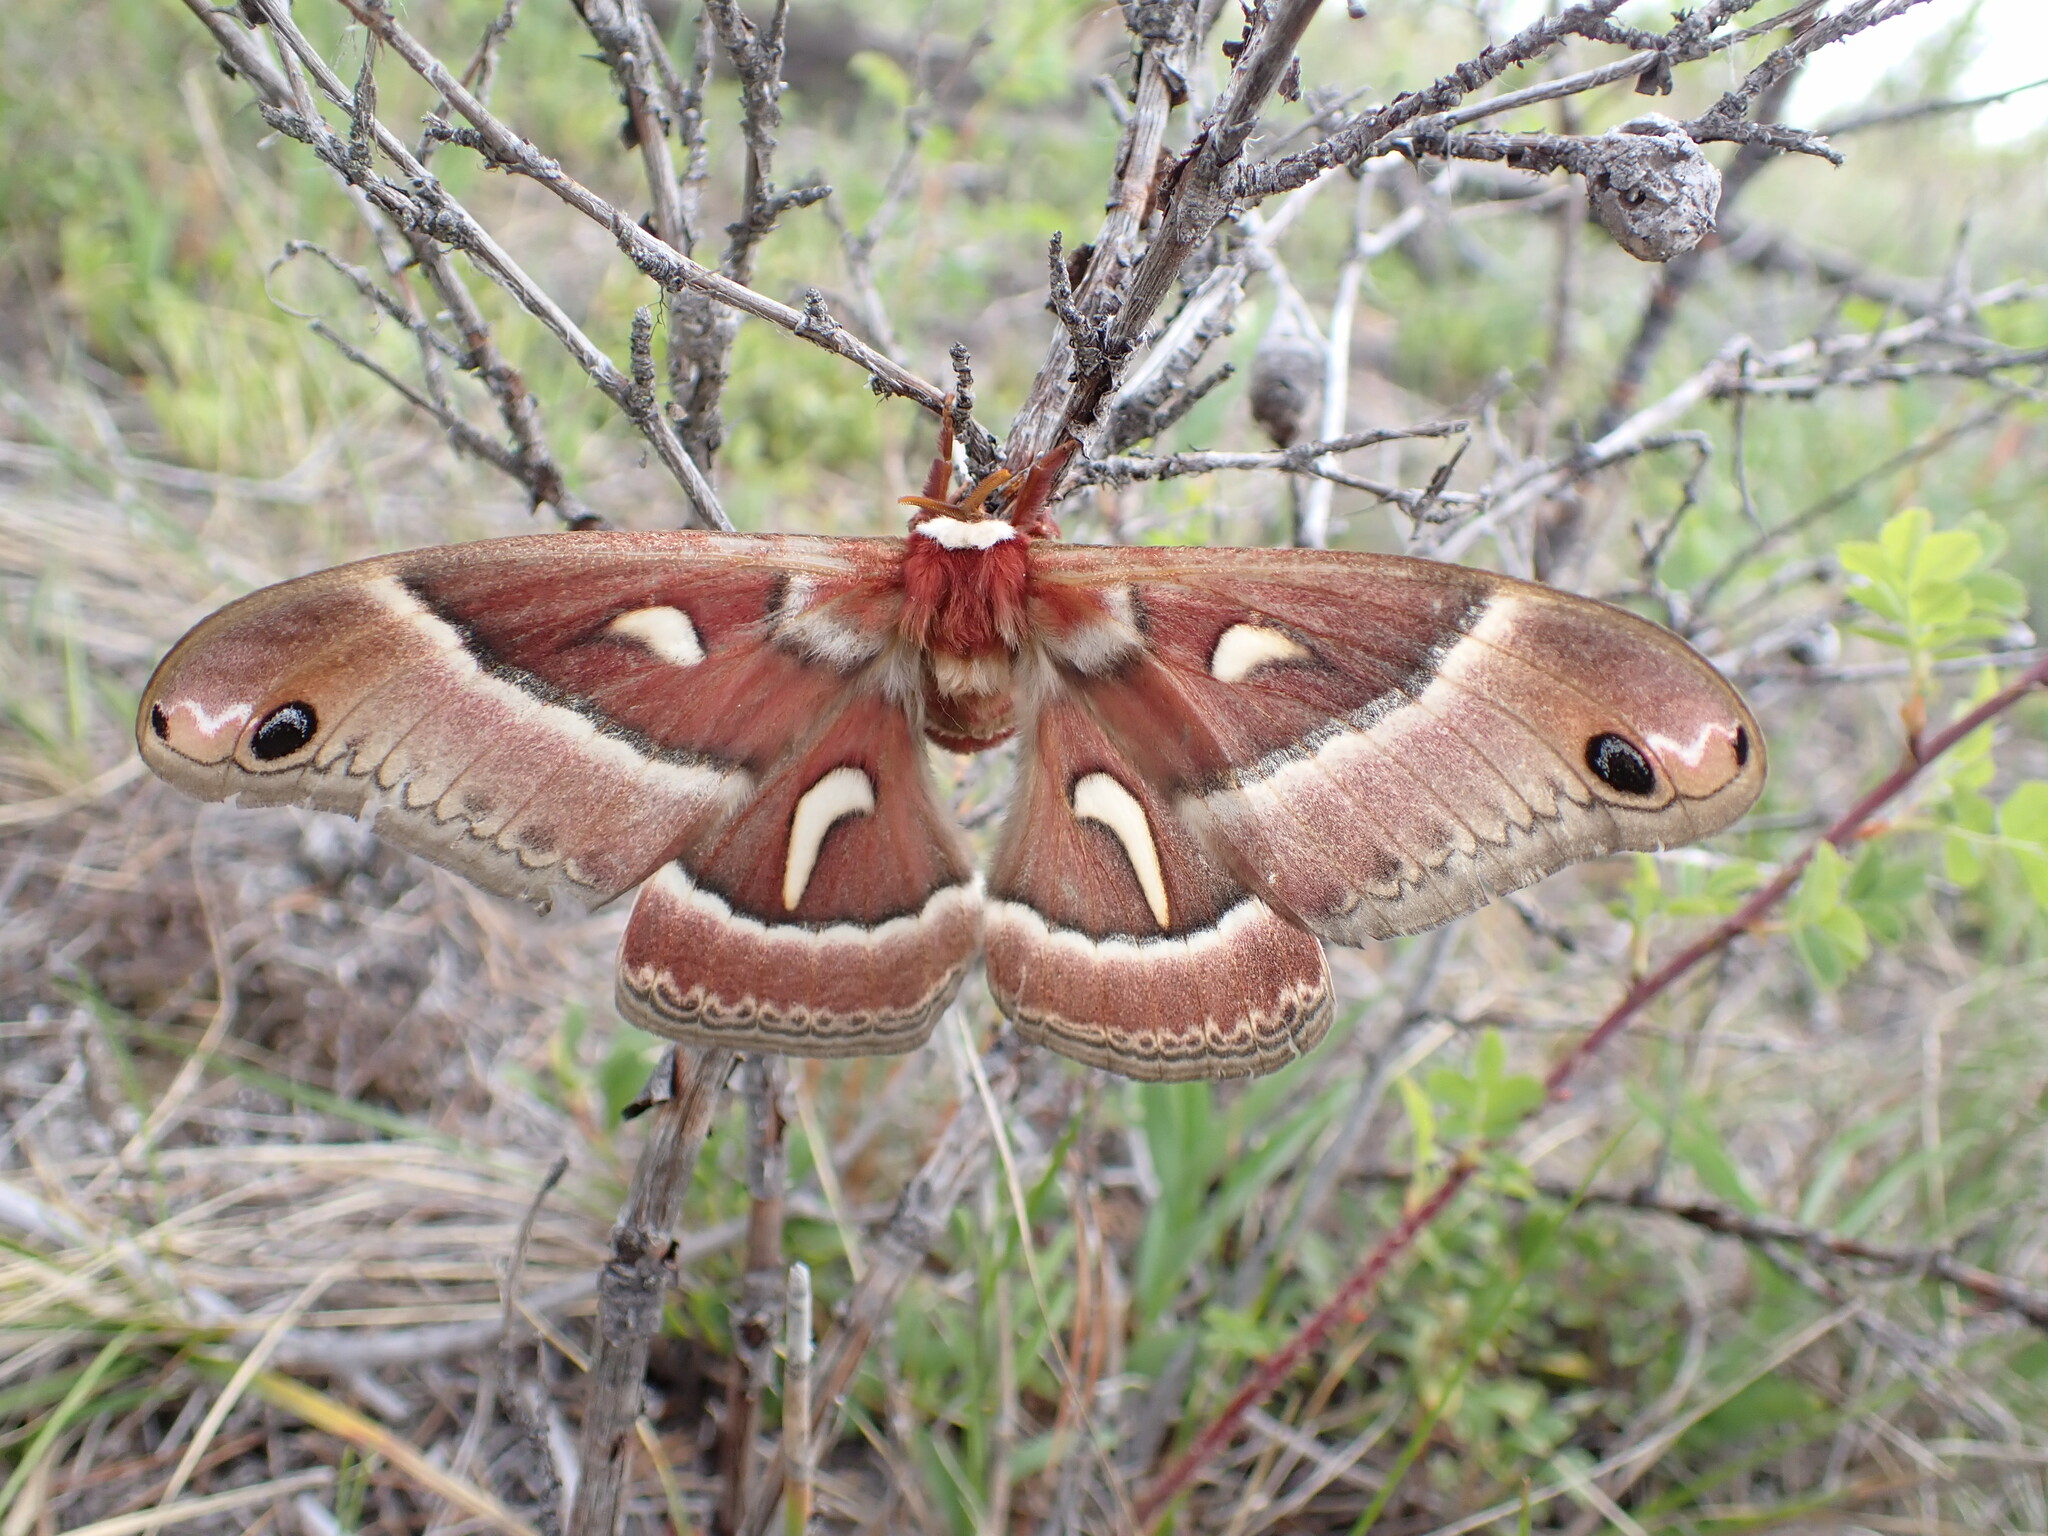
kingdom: Animalia
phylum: Arthropoda
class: Insecta
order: Lepidoptera
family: Saturniidae
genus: Hyalophora
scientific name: Hyalophora euryalus
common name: Ceanothus silkmoth
